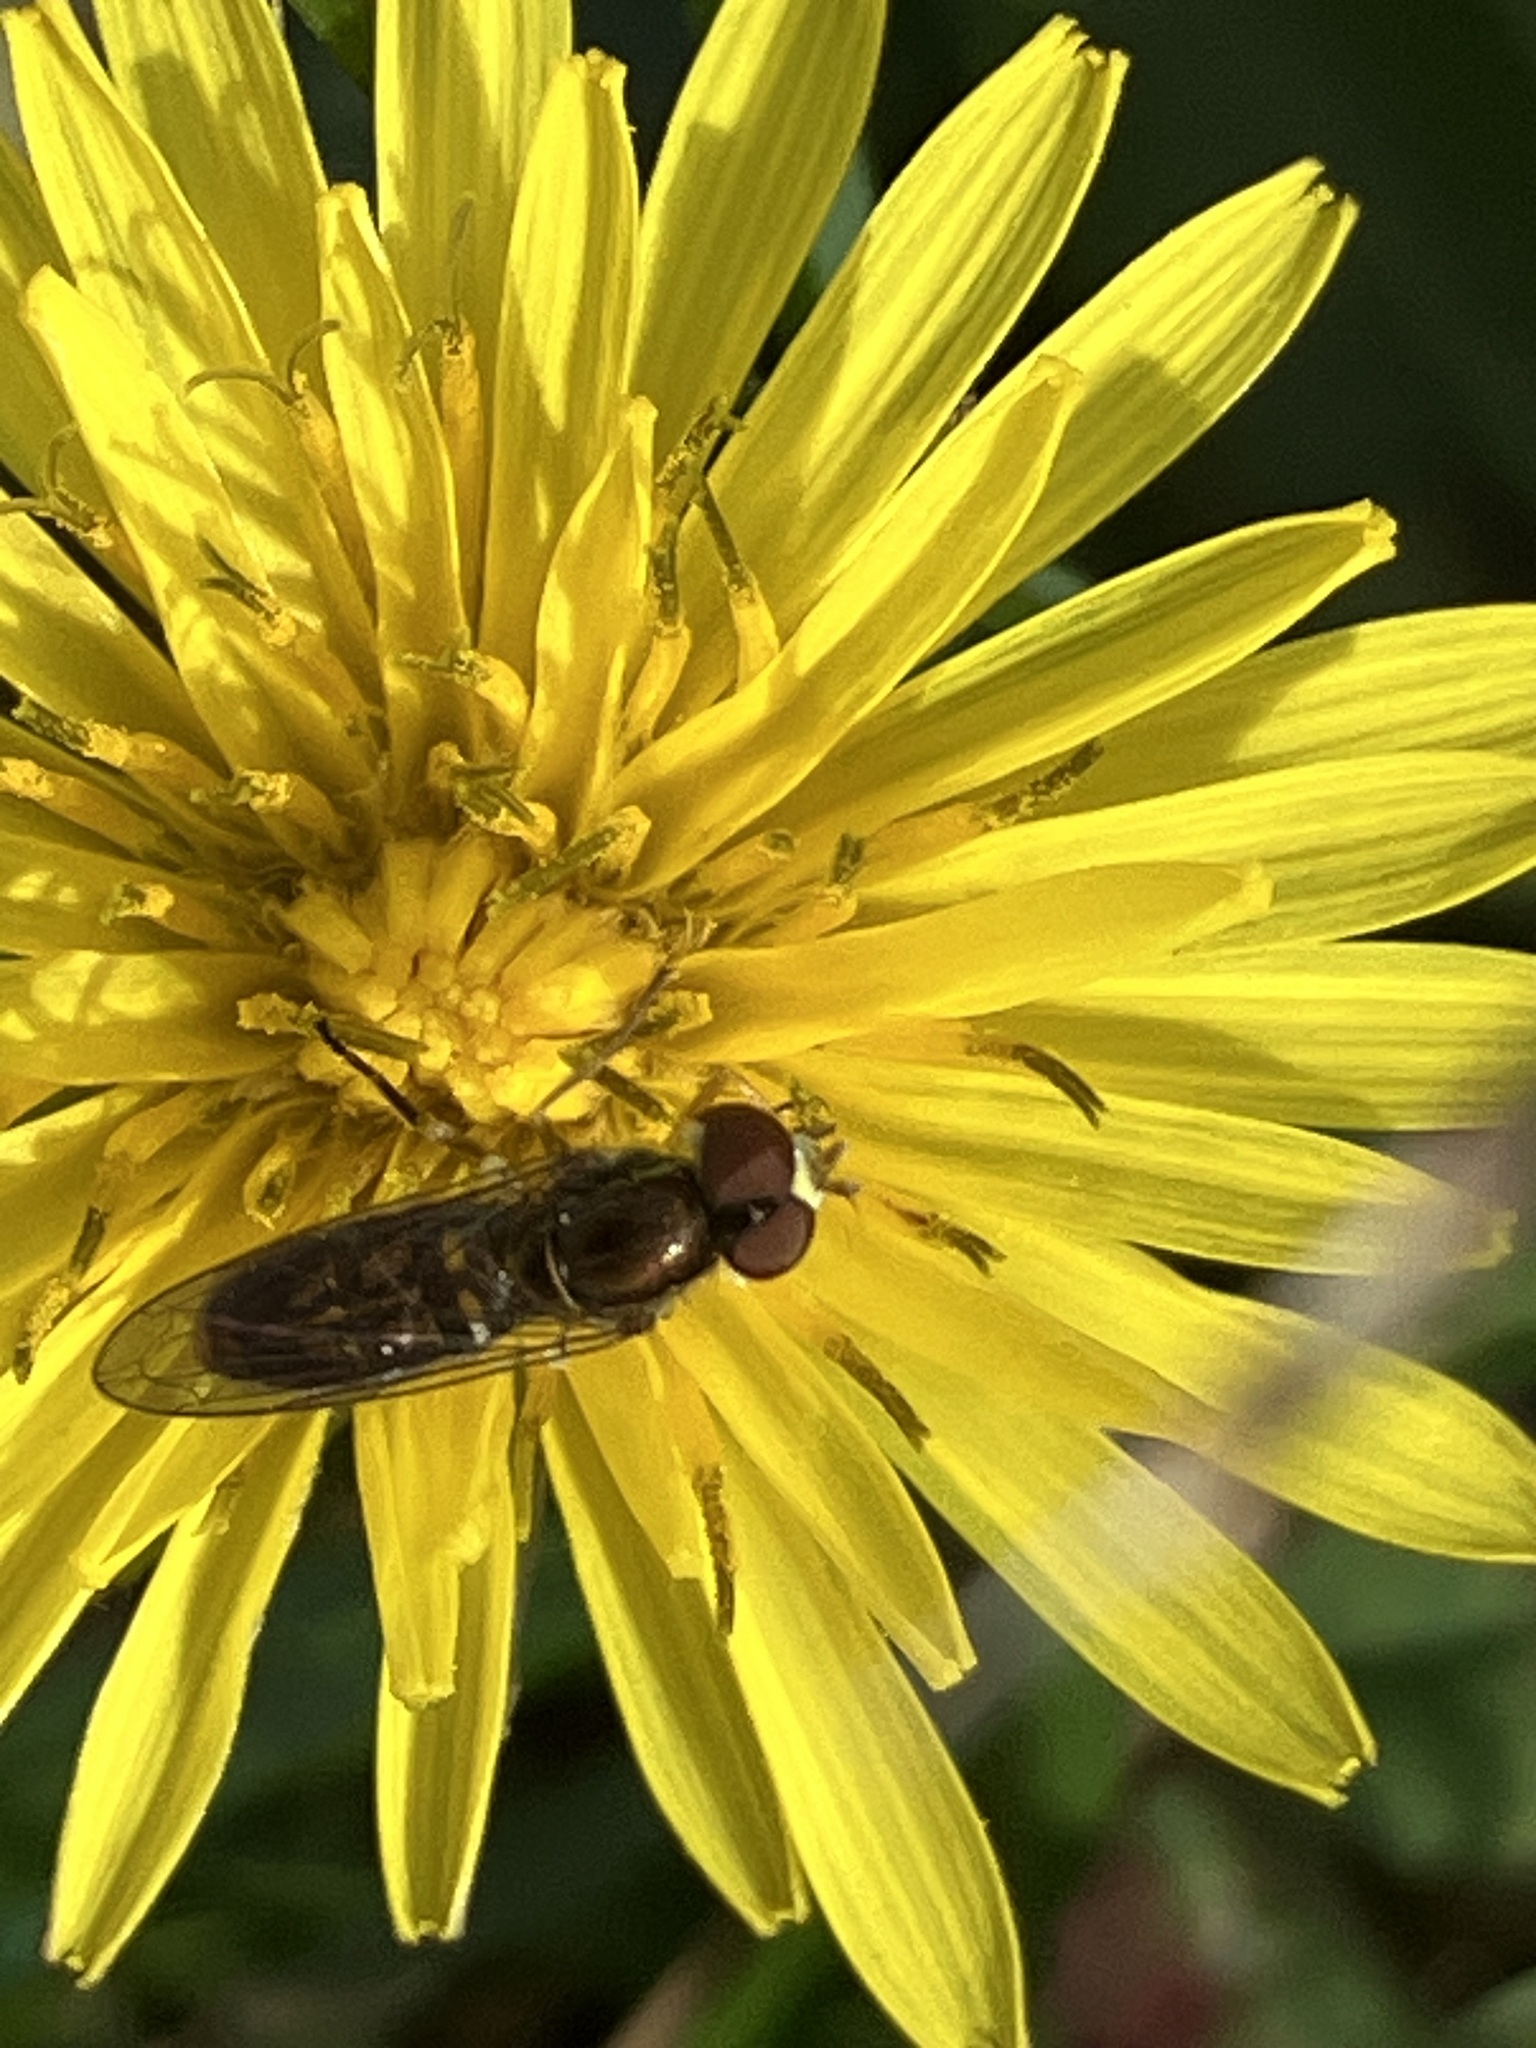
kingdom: Animalia
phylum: Arthropoda
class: Insecta
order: Diptera
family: Syrphidae
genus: Toxomerus
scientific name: Toxomerus marginatus
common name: Syrphid fly
